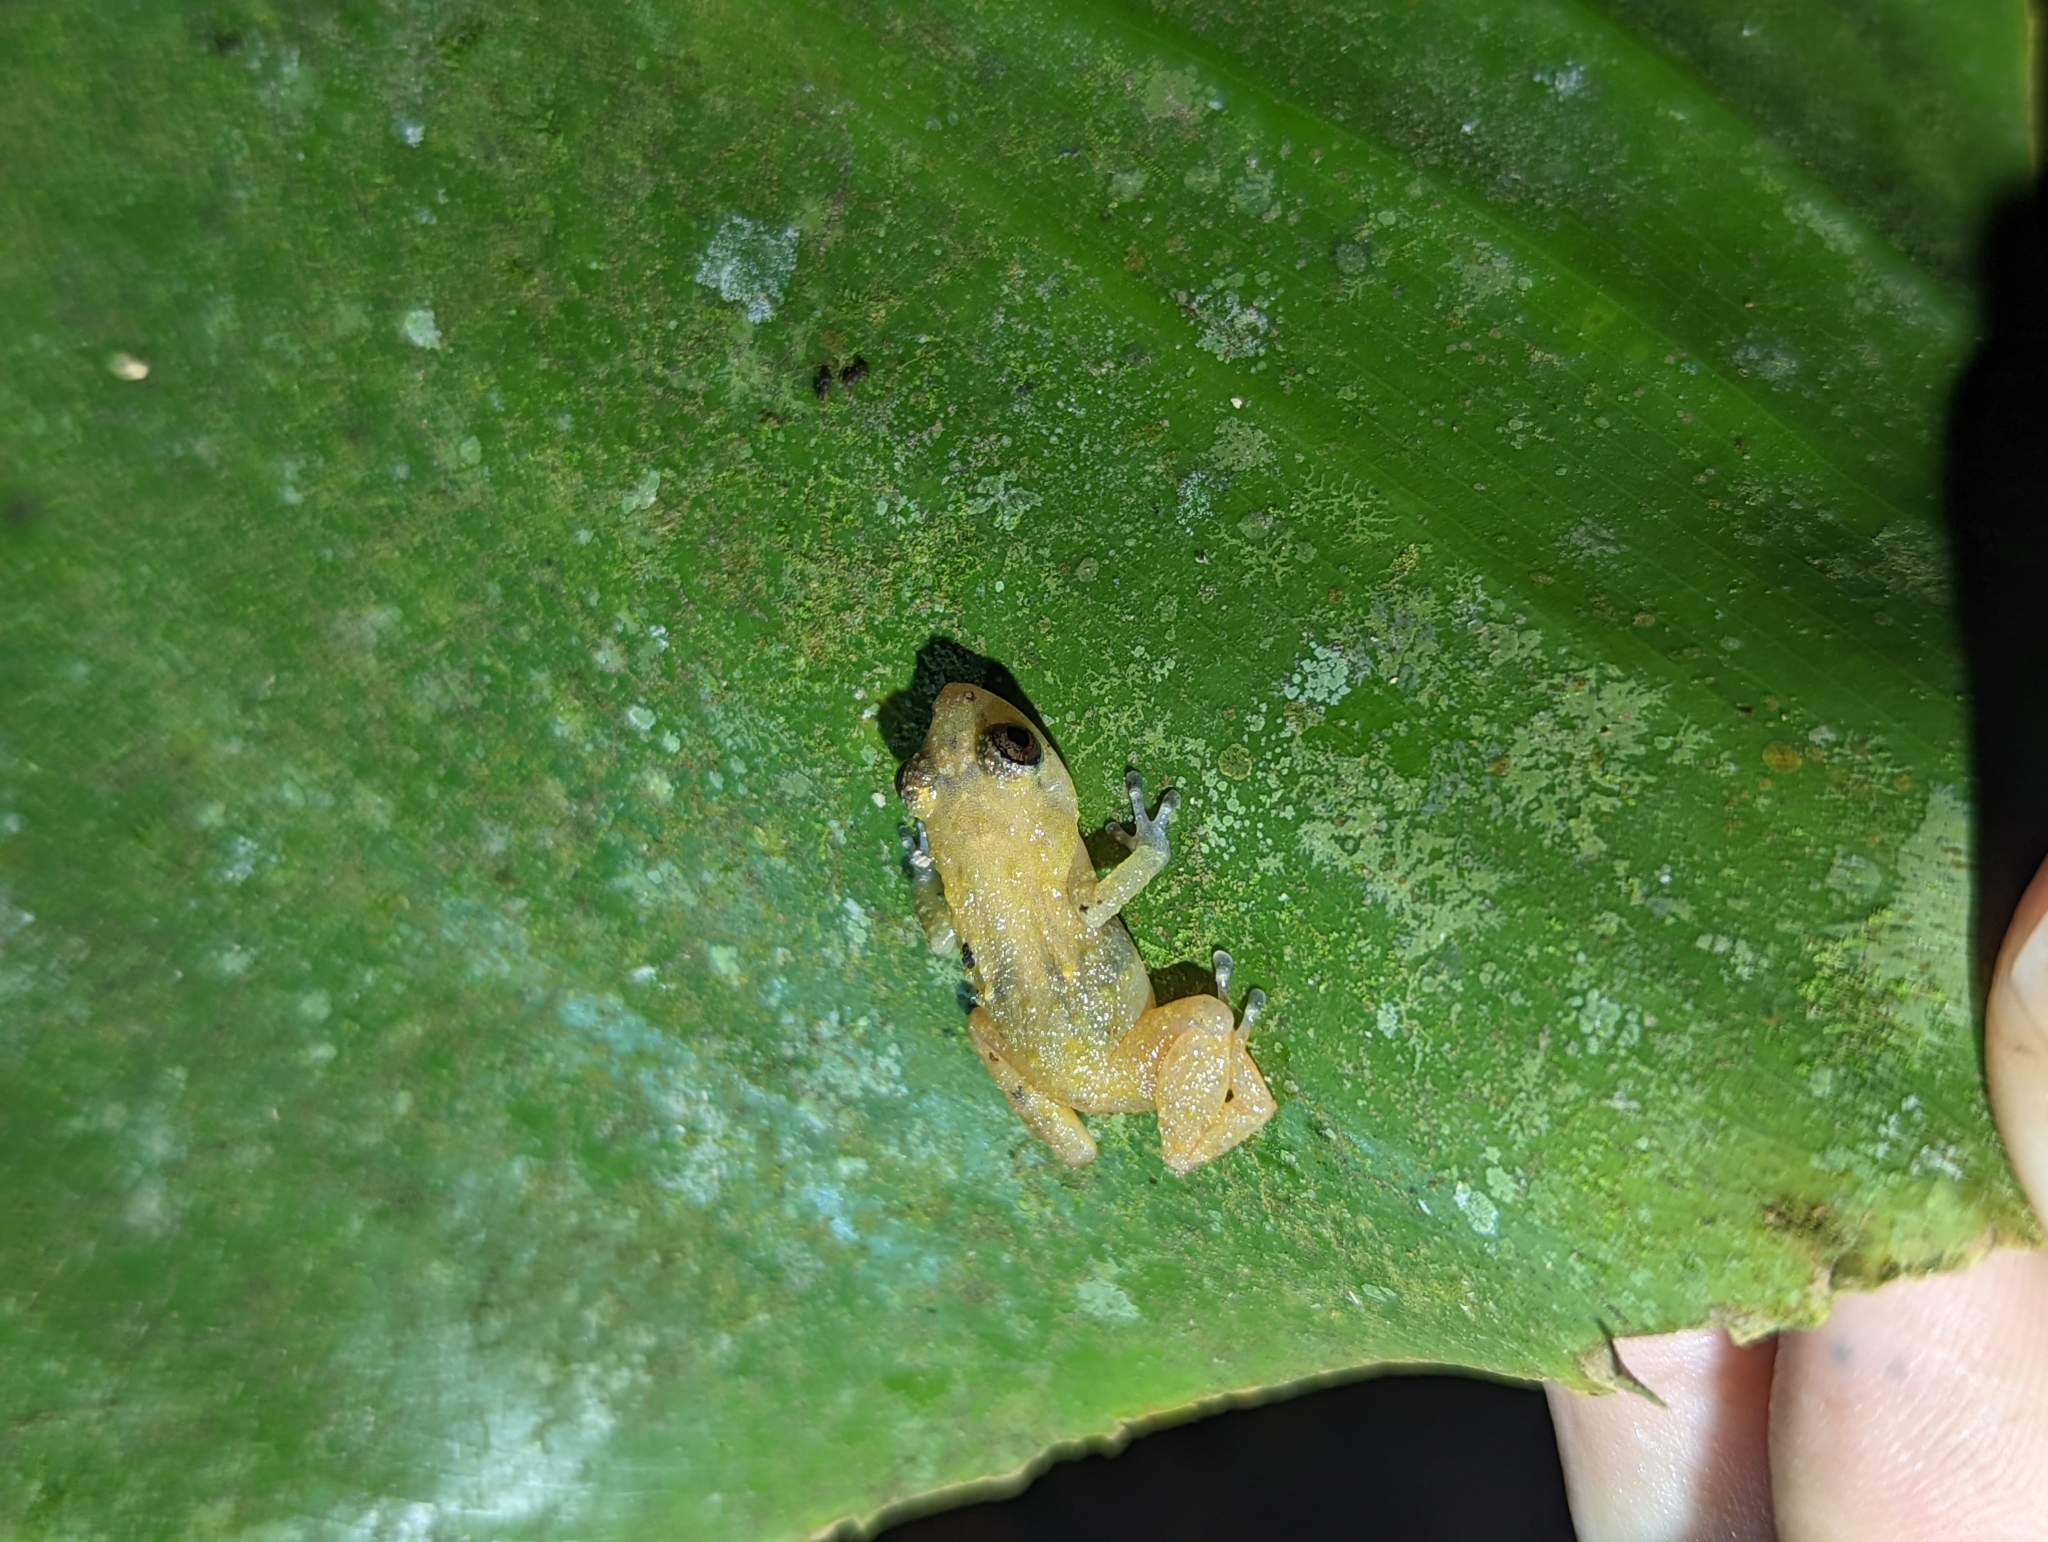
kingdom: Animalia
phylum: Chordata
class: Amphibia
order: Anura
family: Eleutherodactylidae
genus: Diasporus
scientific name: Diasporus diastema
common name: Caretta robber frog
